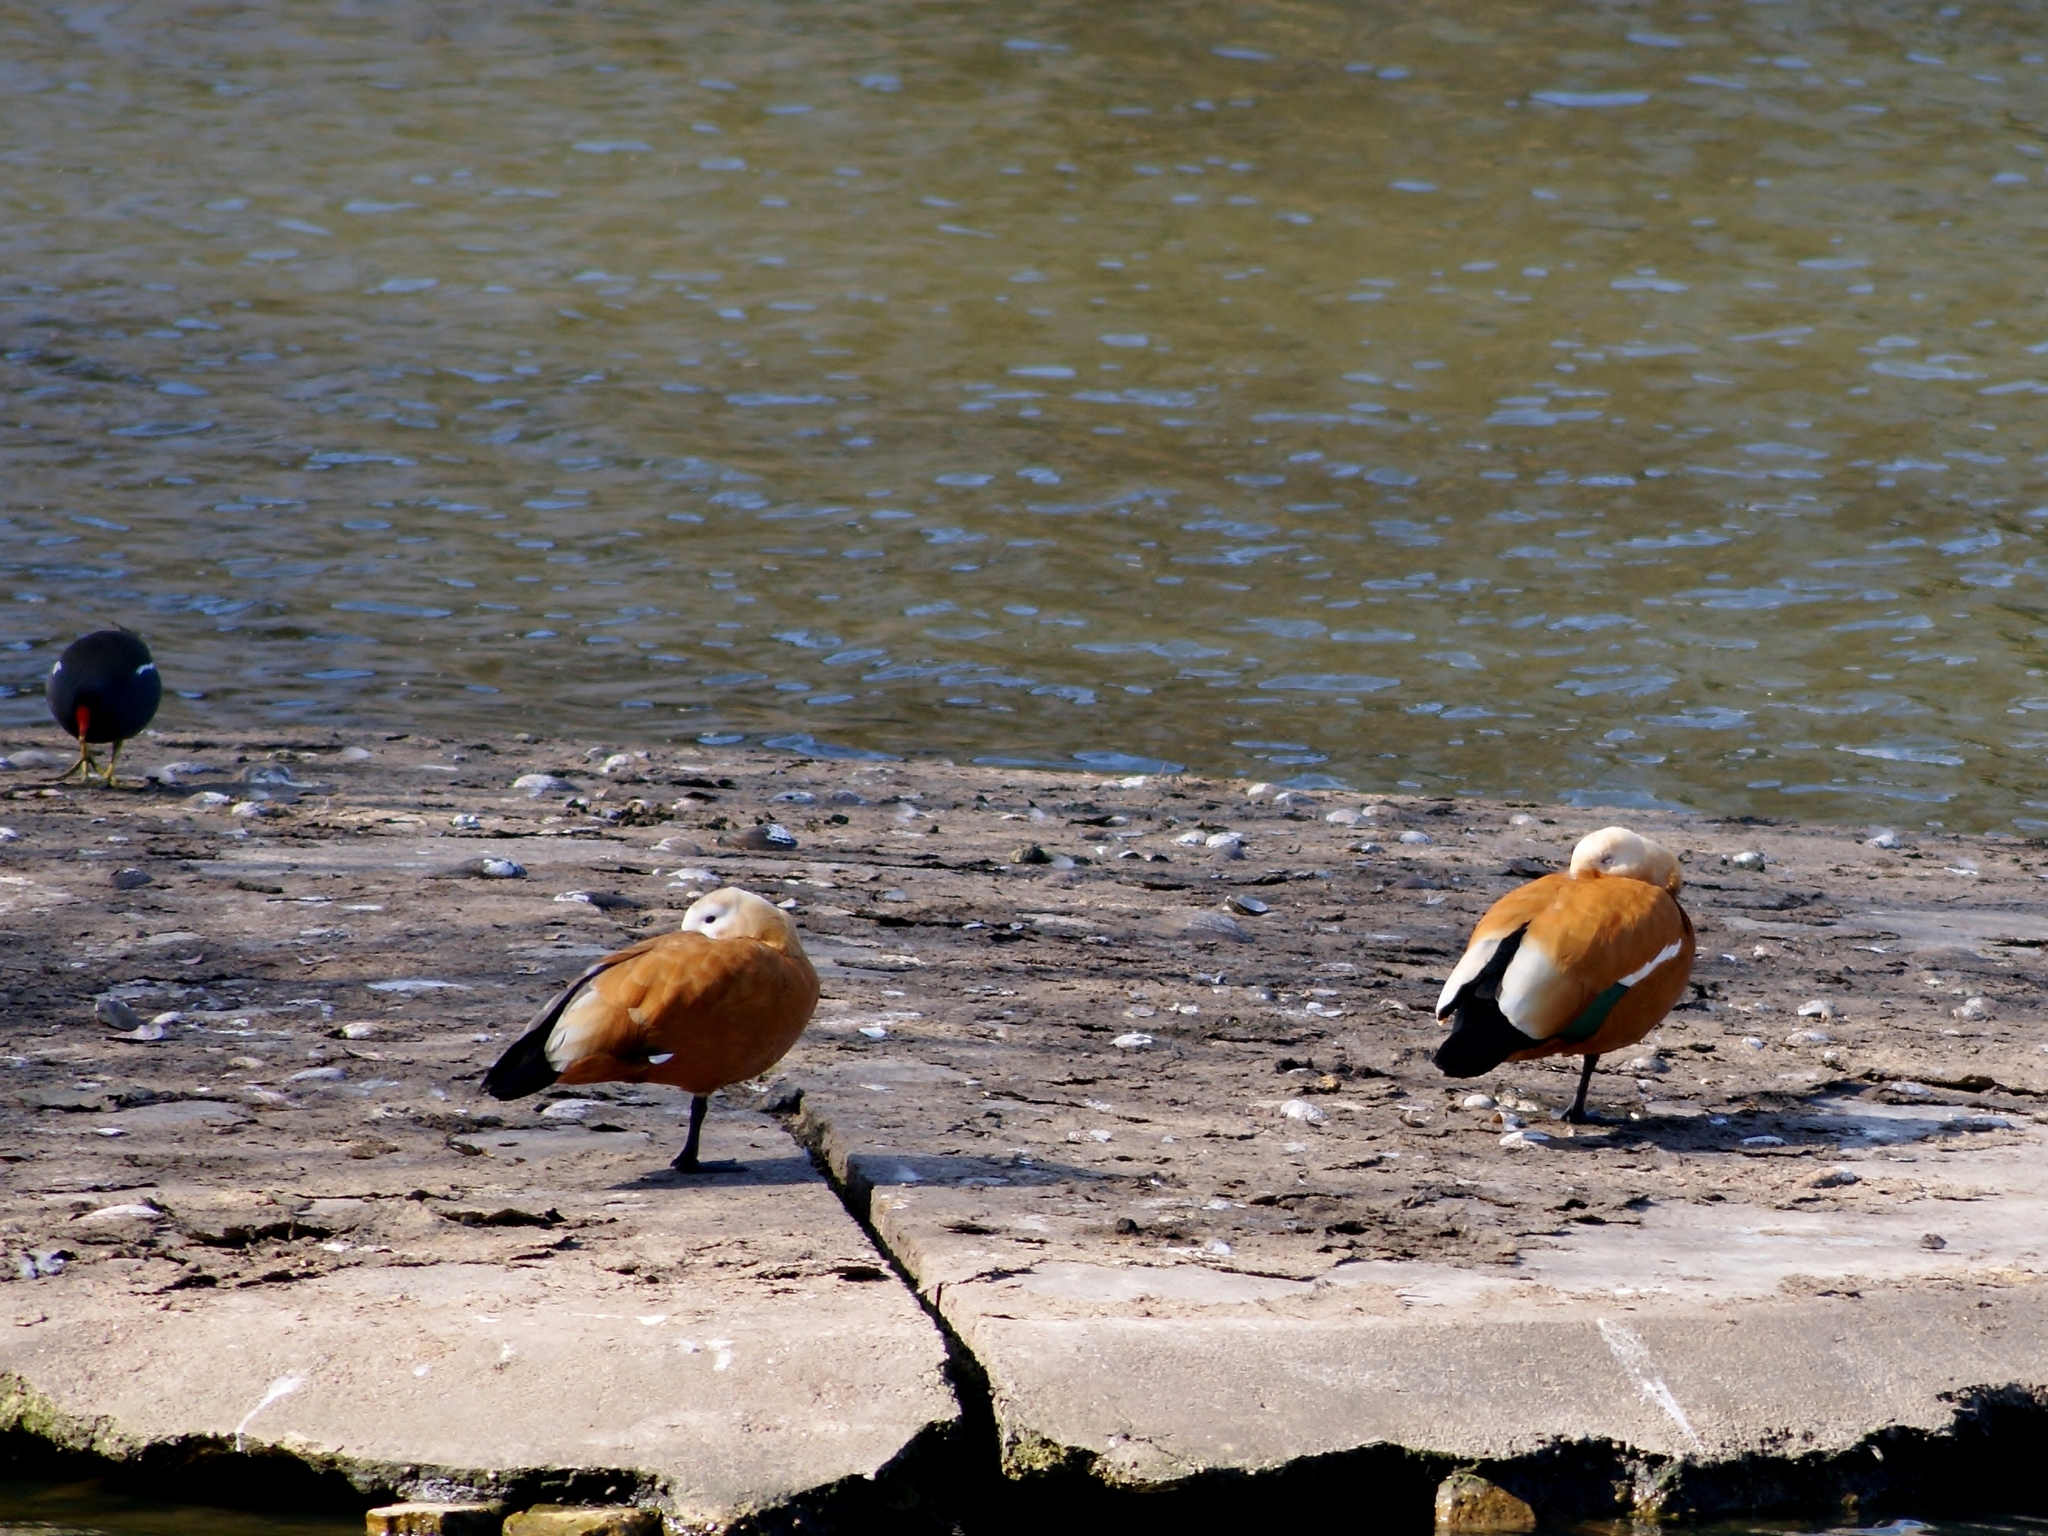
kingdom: Animalia
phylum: Chordata
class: Aves
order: Anseriformes
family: Anatidae
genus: Tadorna
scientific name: Tadorna ferruginea
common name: Ruddy shelduck
